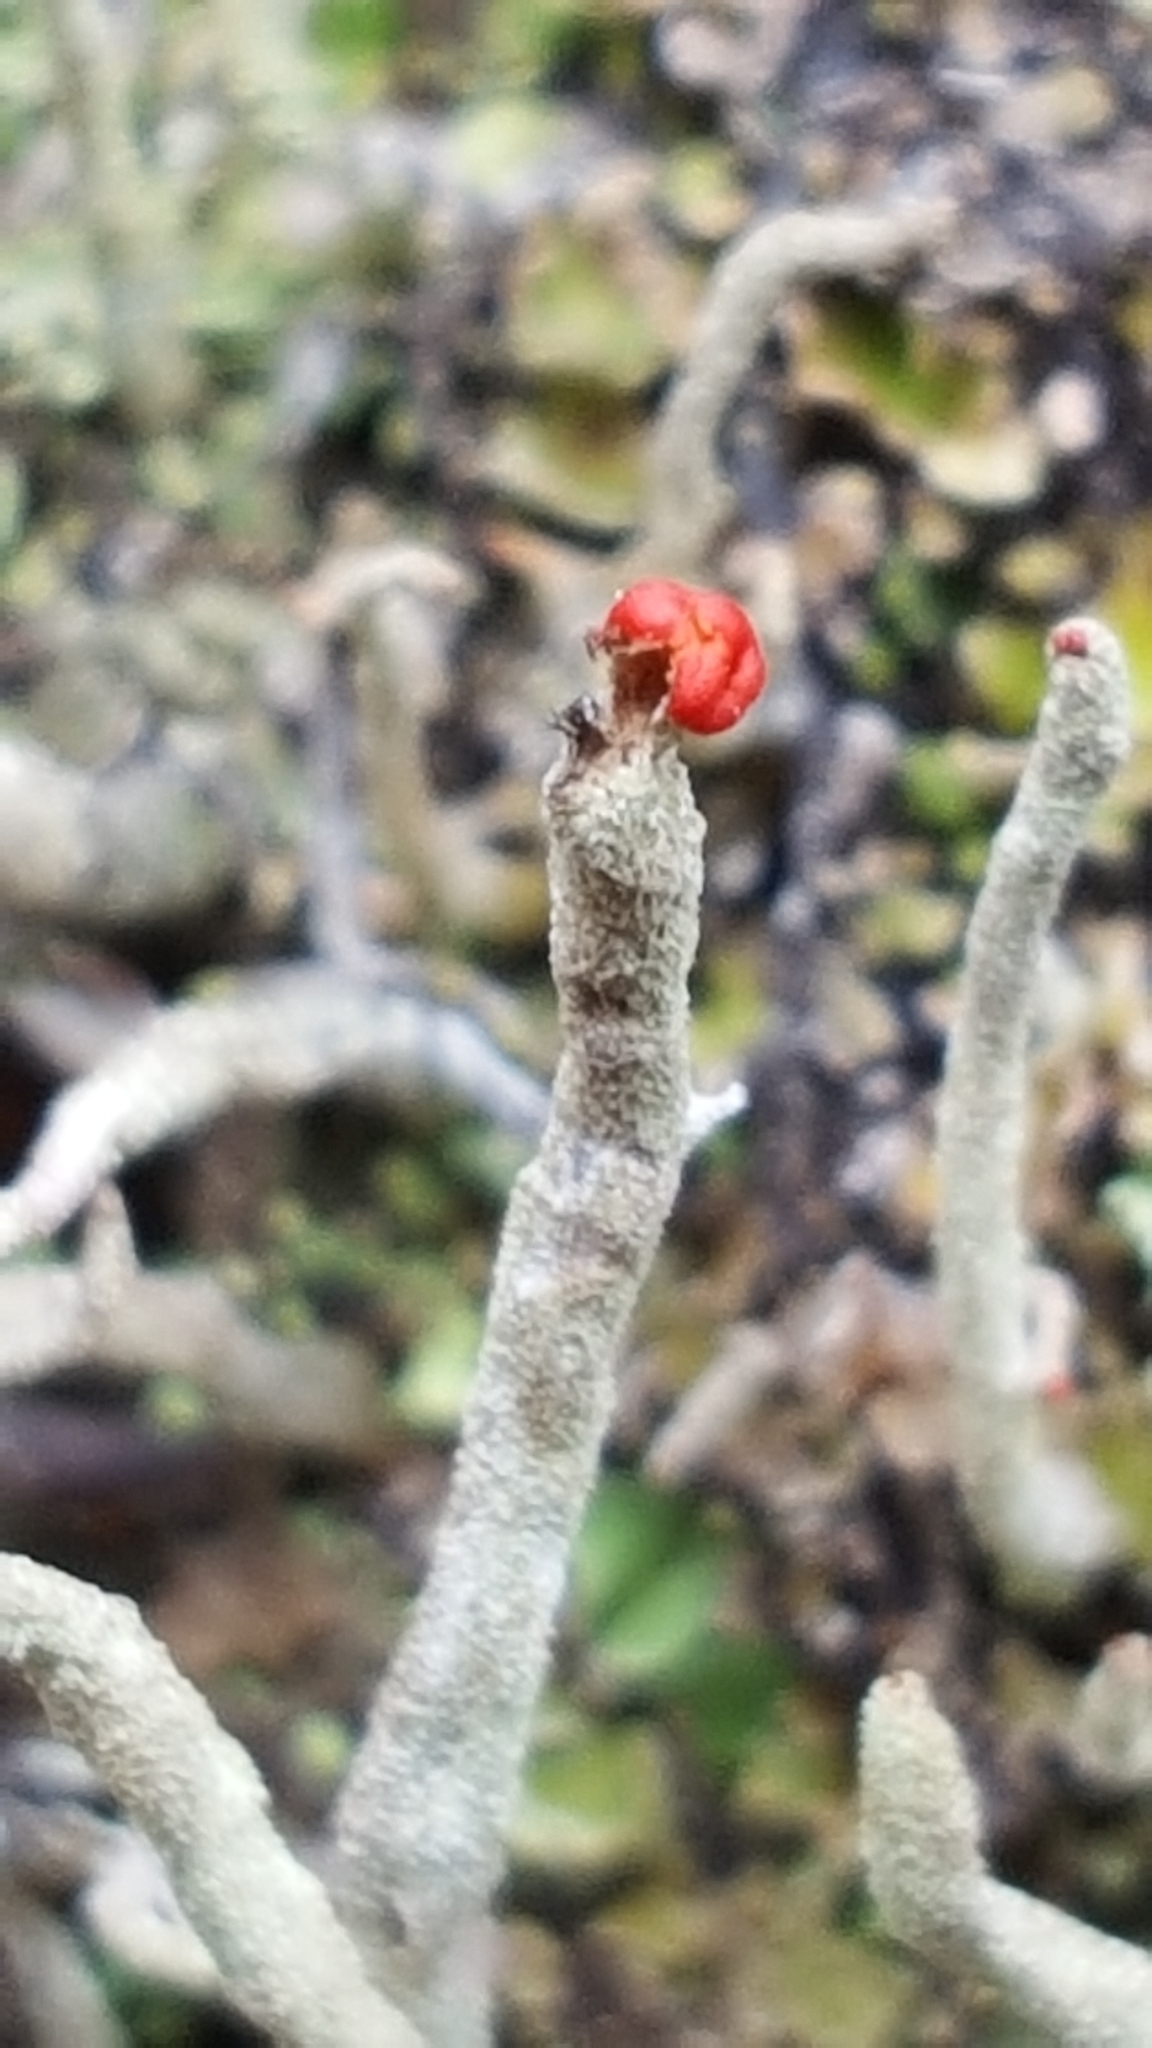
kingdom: Fungi
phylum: Ascomycota
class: Lecanoromycetes
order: Lecanorales
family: Cladoniaceae
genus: Cladonia
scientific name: Cladonia macilenta
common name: Lipstick powderhorn
